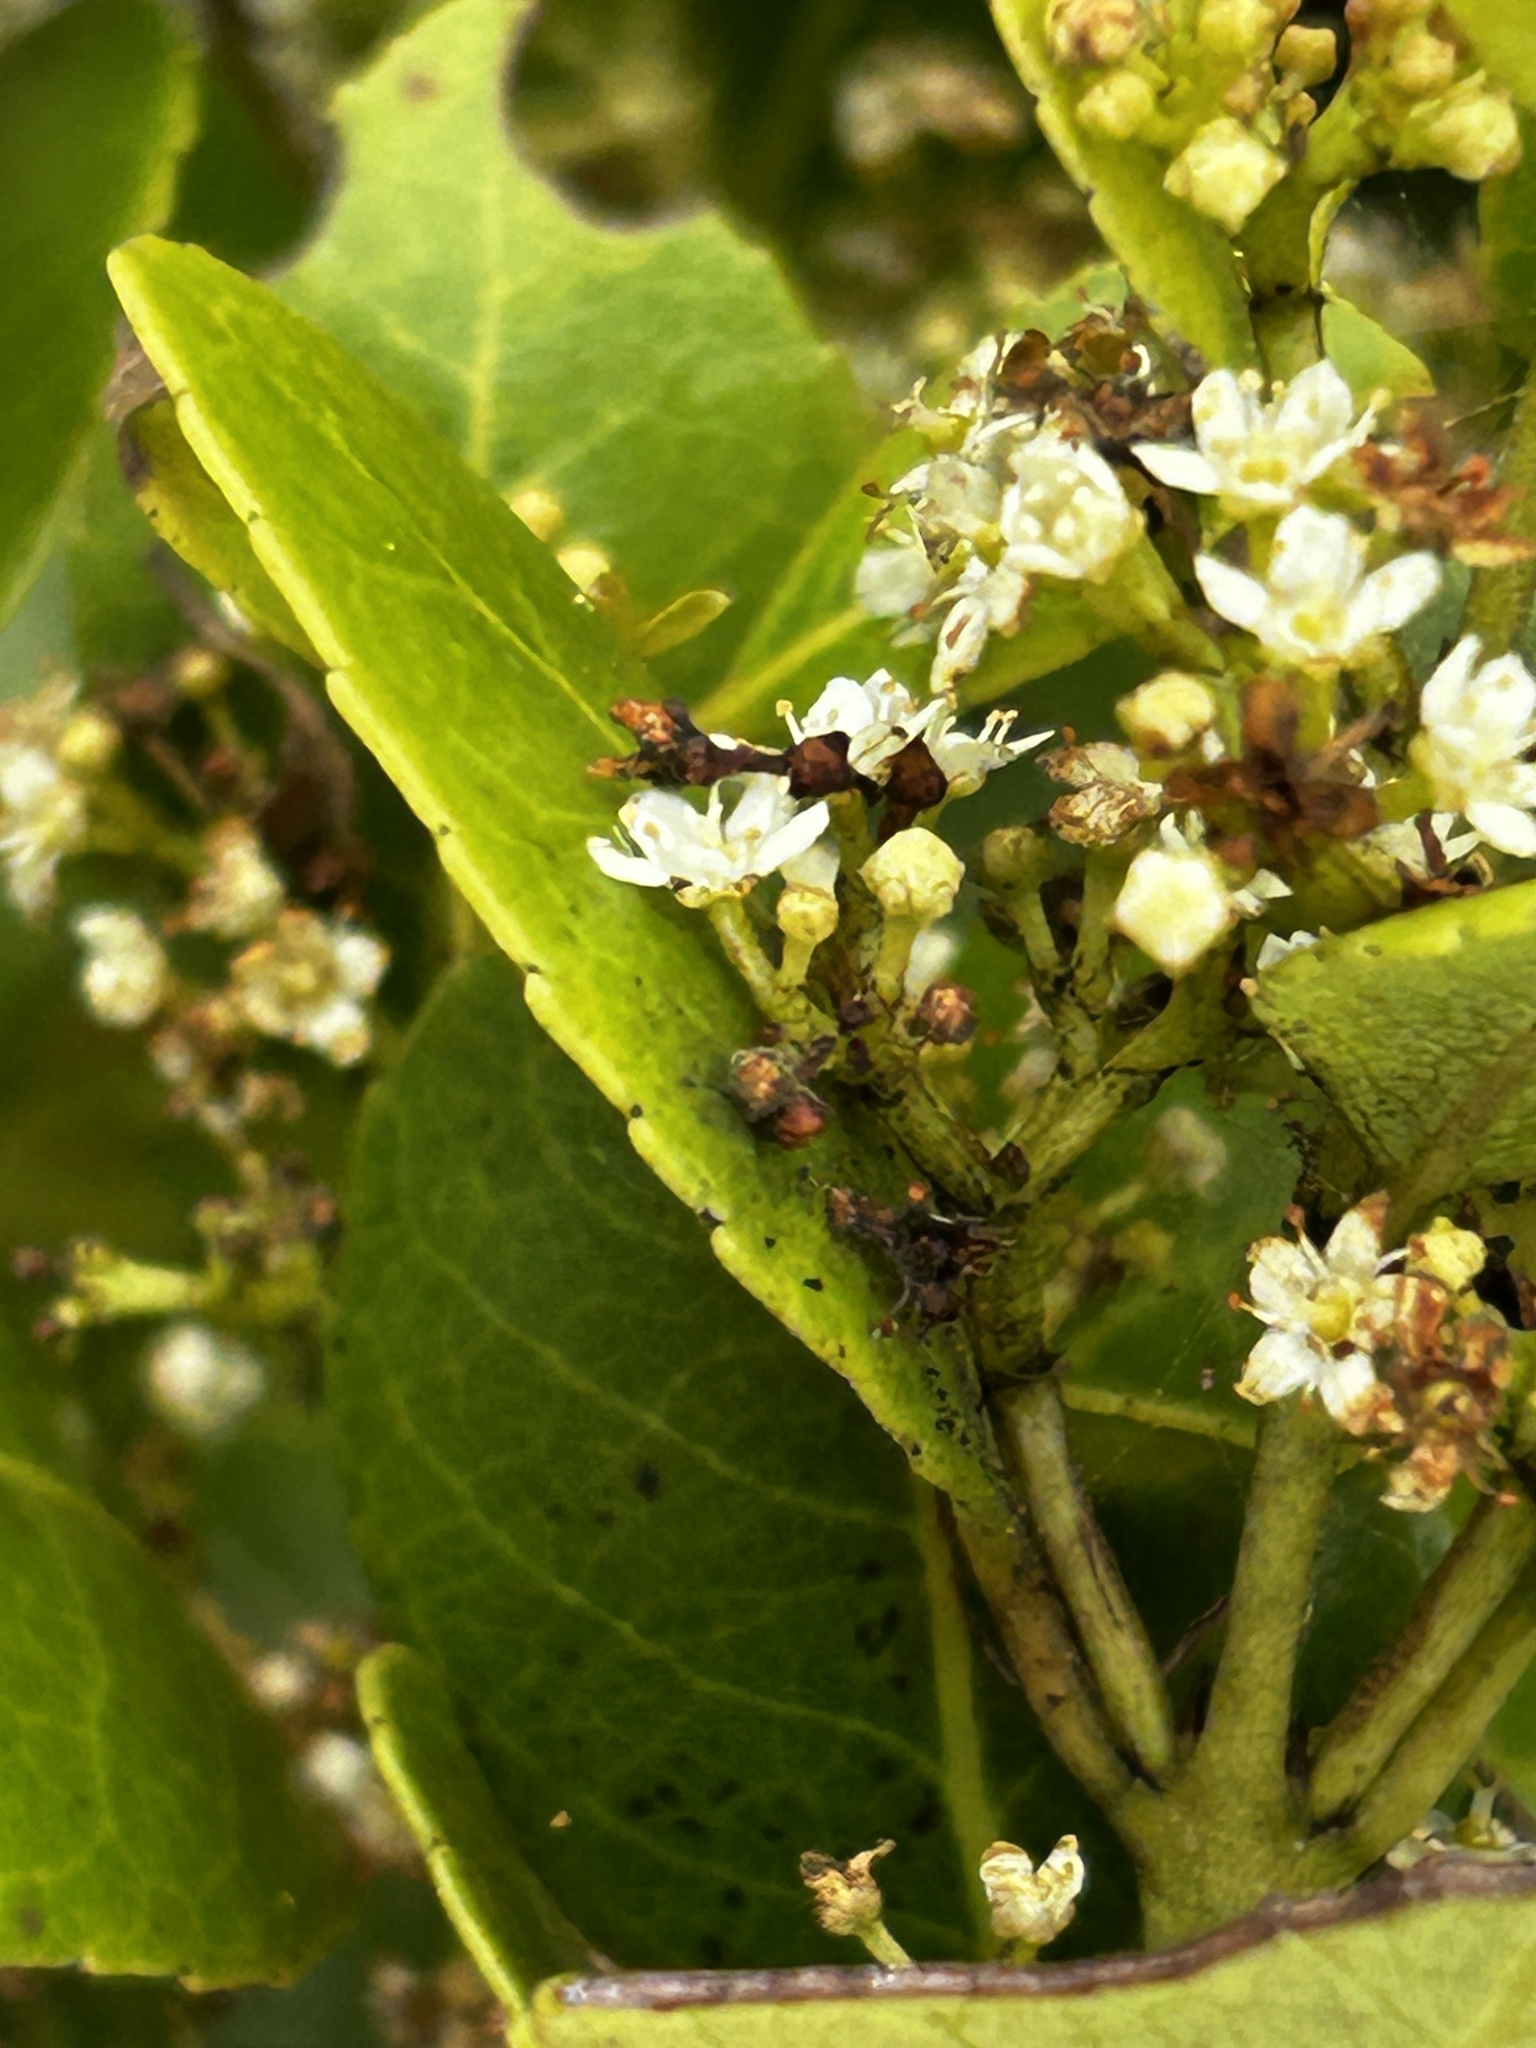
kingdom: Plantae
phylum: Tracheophyta
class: Magnoliopsida
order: Celastrales
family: Celastraceae
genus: Cassine
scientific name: Cassine peragua
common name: Cape saffron
